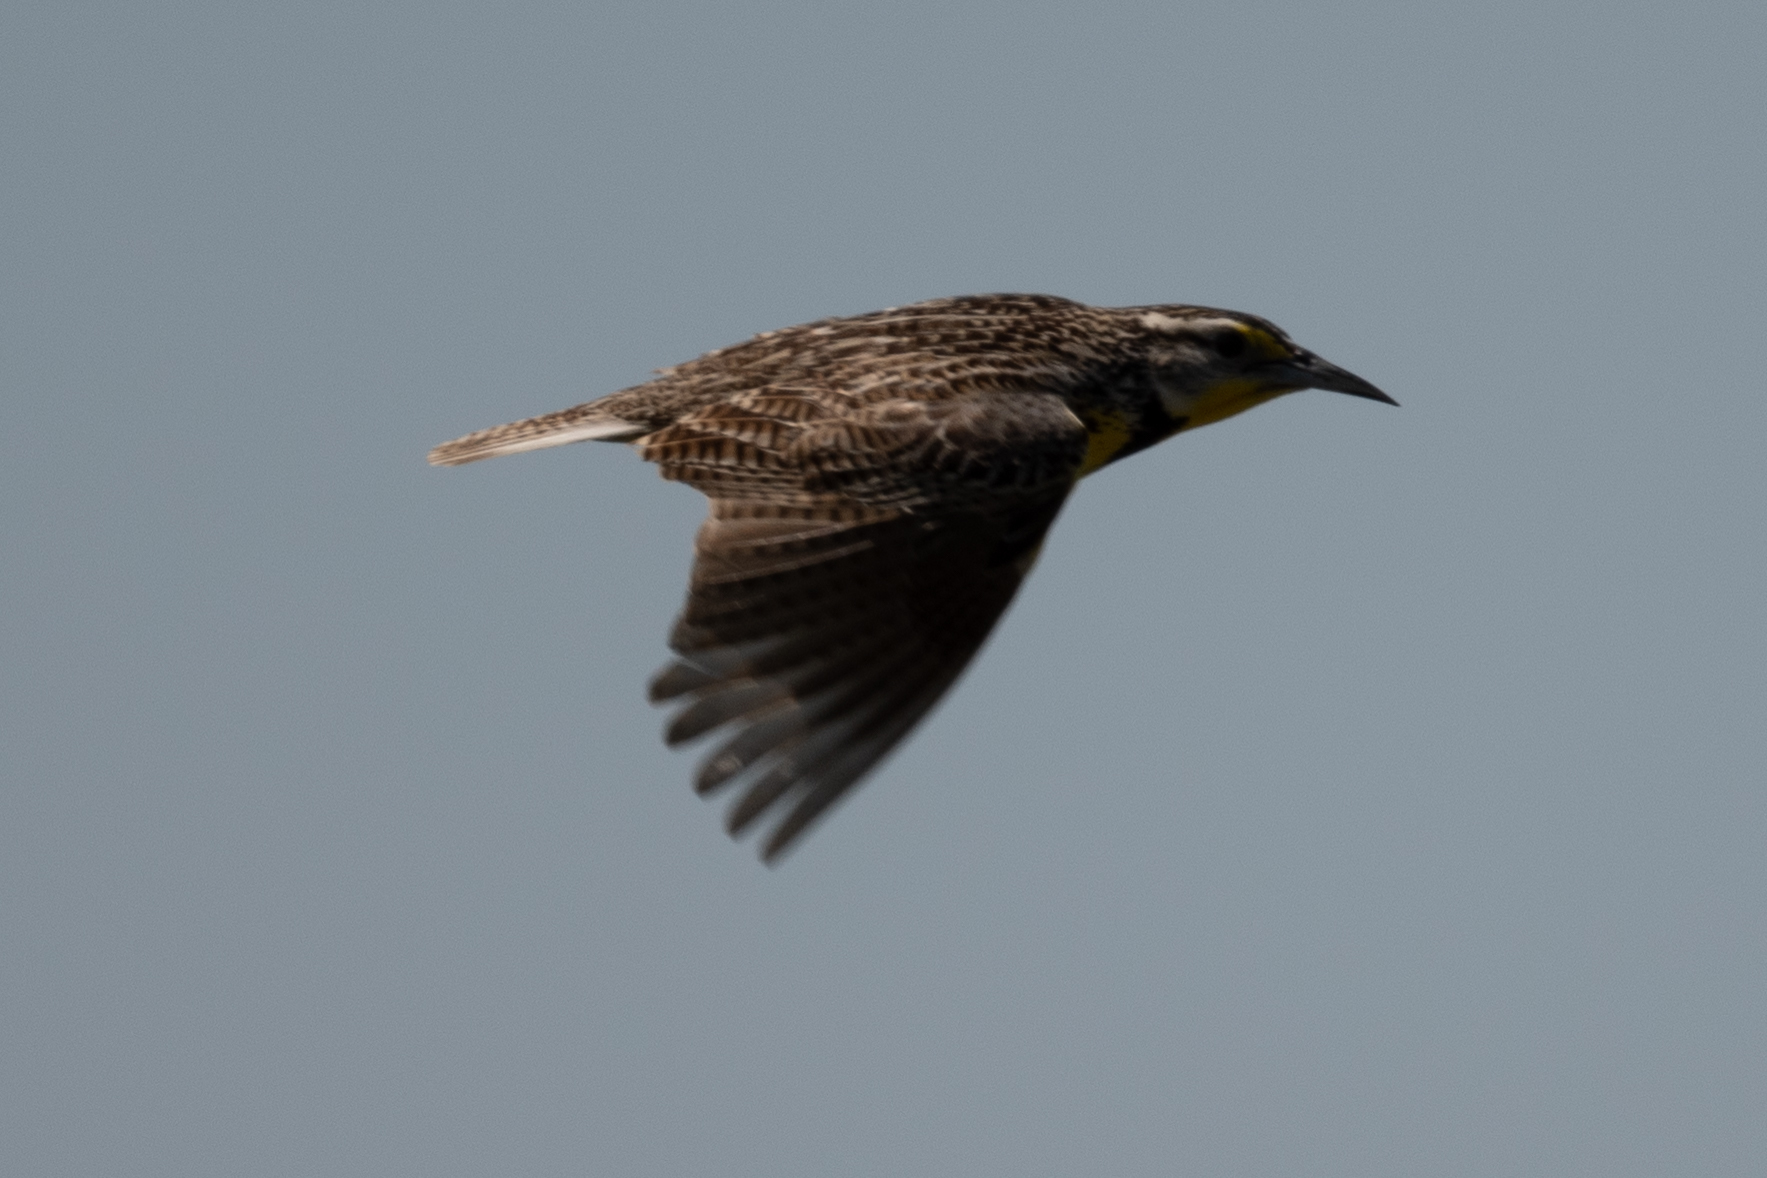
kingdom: Animalia
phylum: Chordata
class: Aves
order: Passeriformes
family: Icteridae
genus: Sturnella
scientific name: Sturnella neglecta
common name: Western meadowlark
